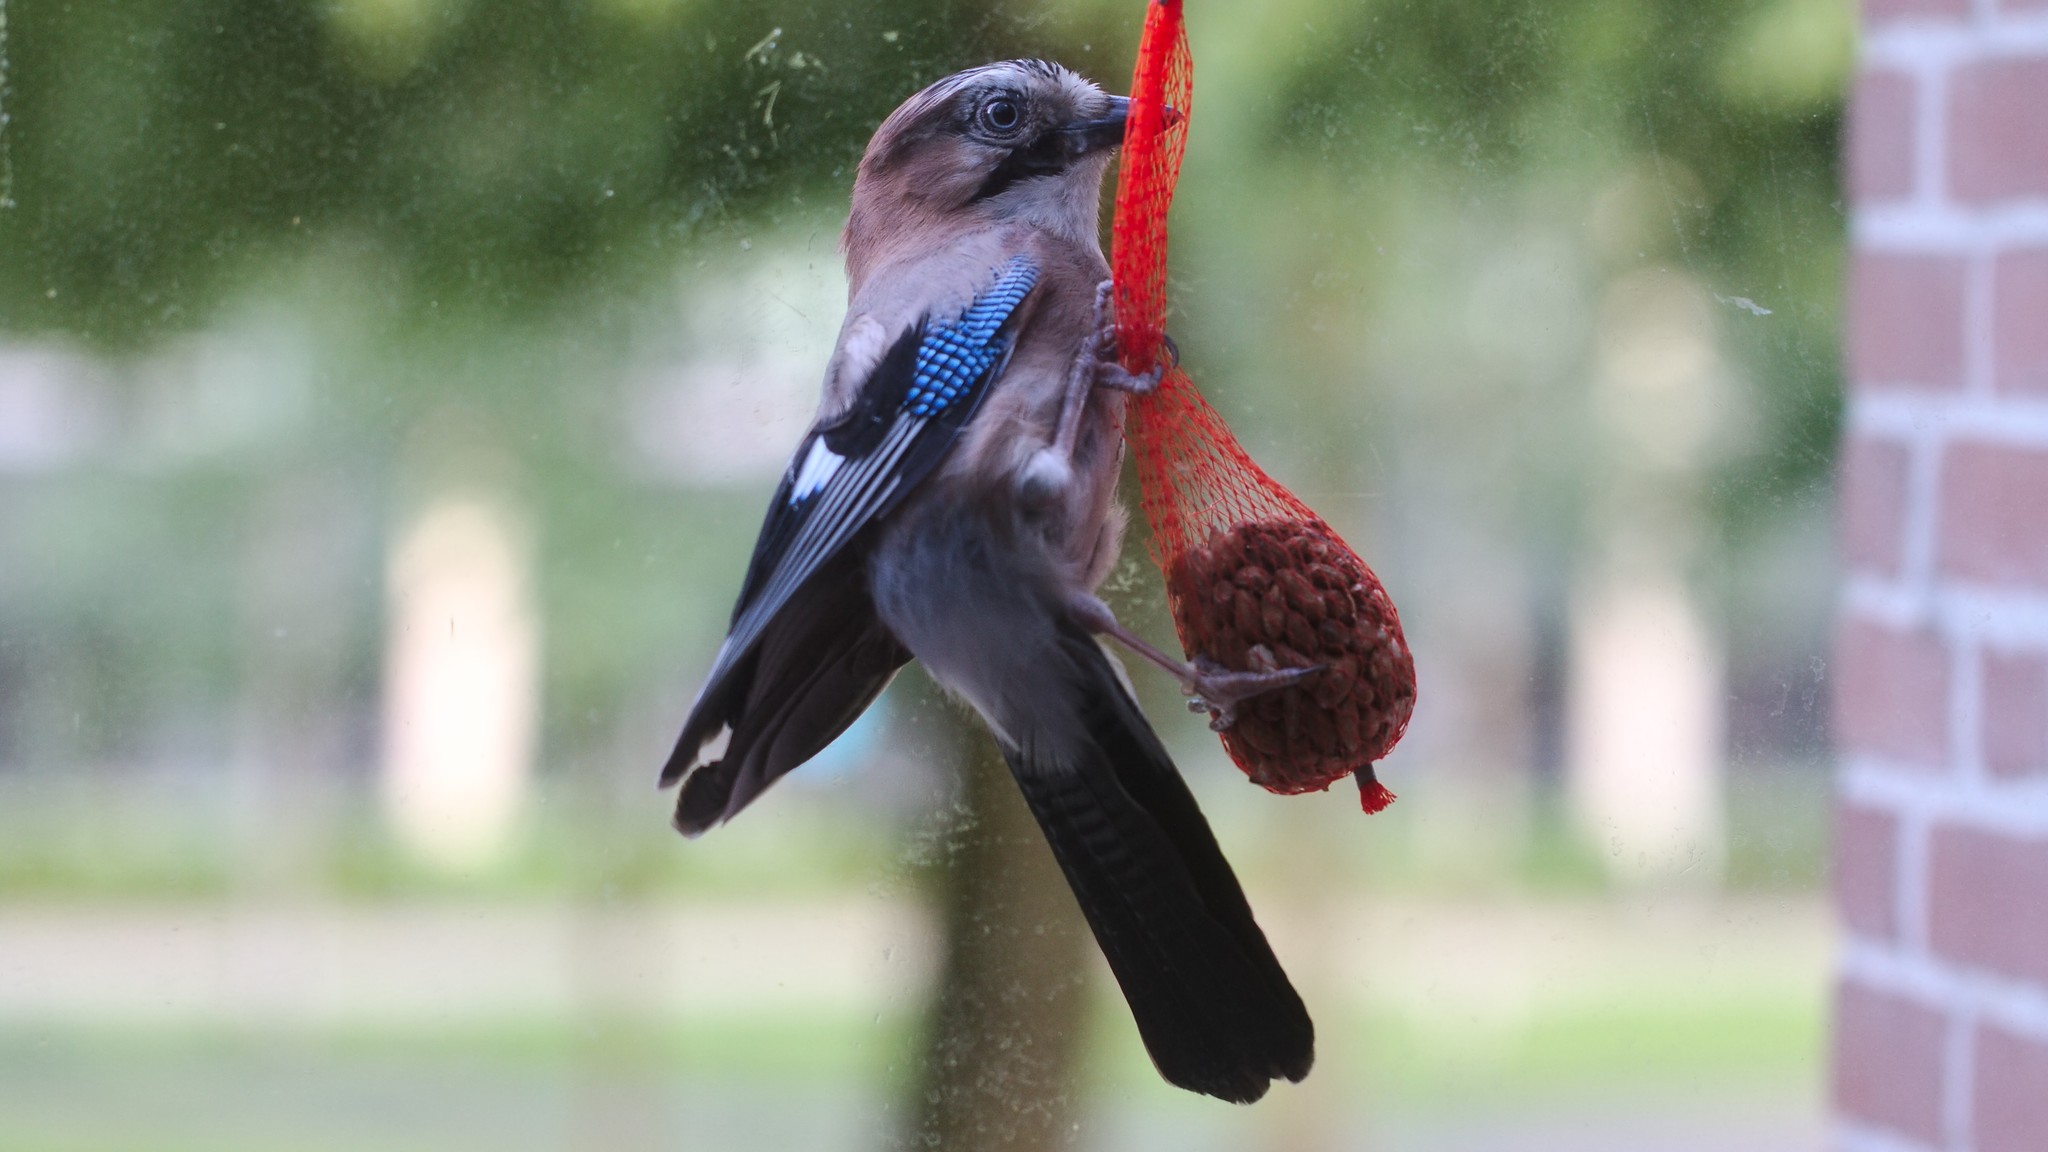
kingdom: Animalia
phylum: Chordata
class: Aves
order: Passeriformes
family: Corvidae
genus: Garrulus
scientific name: Garrulus glandarius
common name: Eurasian jay
